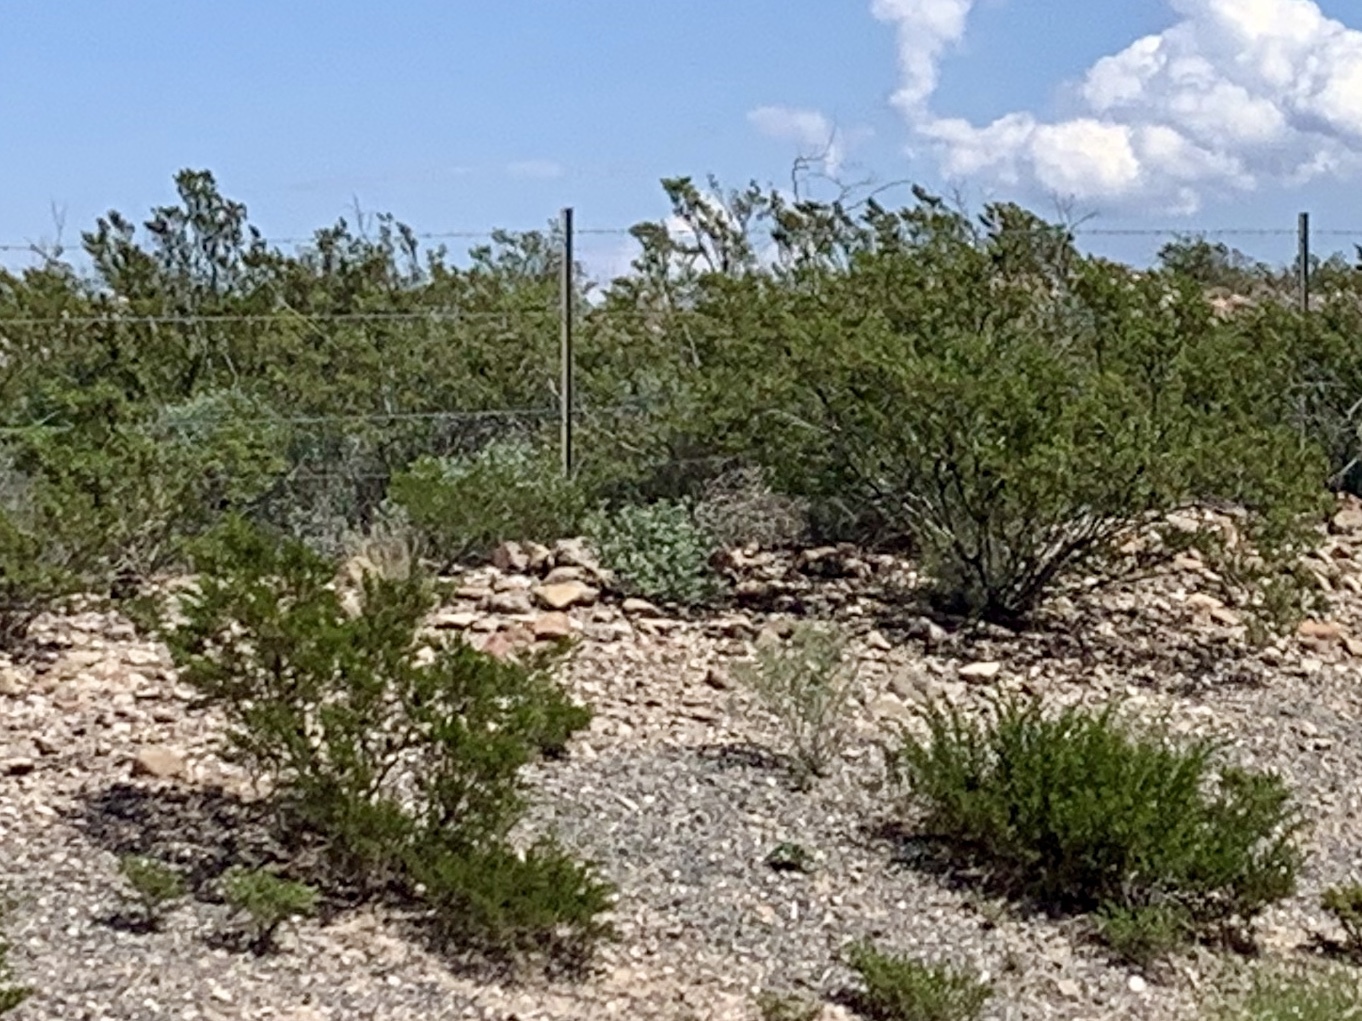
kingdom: Plantae
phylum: Tracheophyta
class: Magnoliopsida
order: Zygophyllales
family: Zygophyllaceae
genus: Larrea
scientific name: Larrea tridentata
